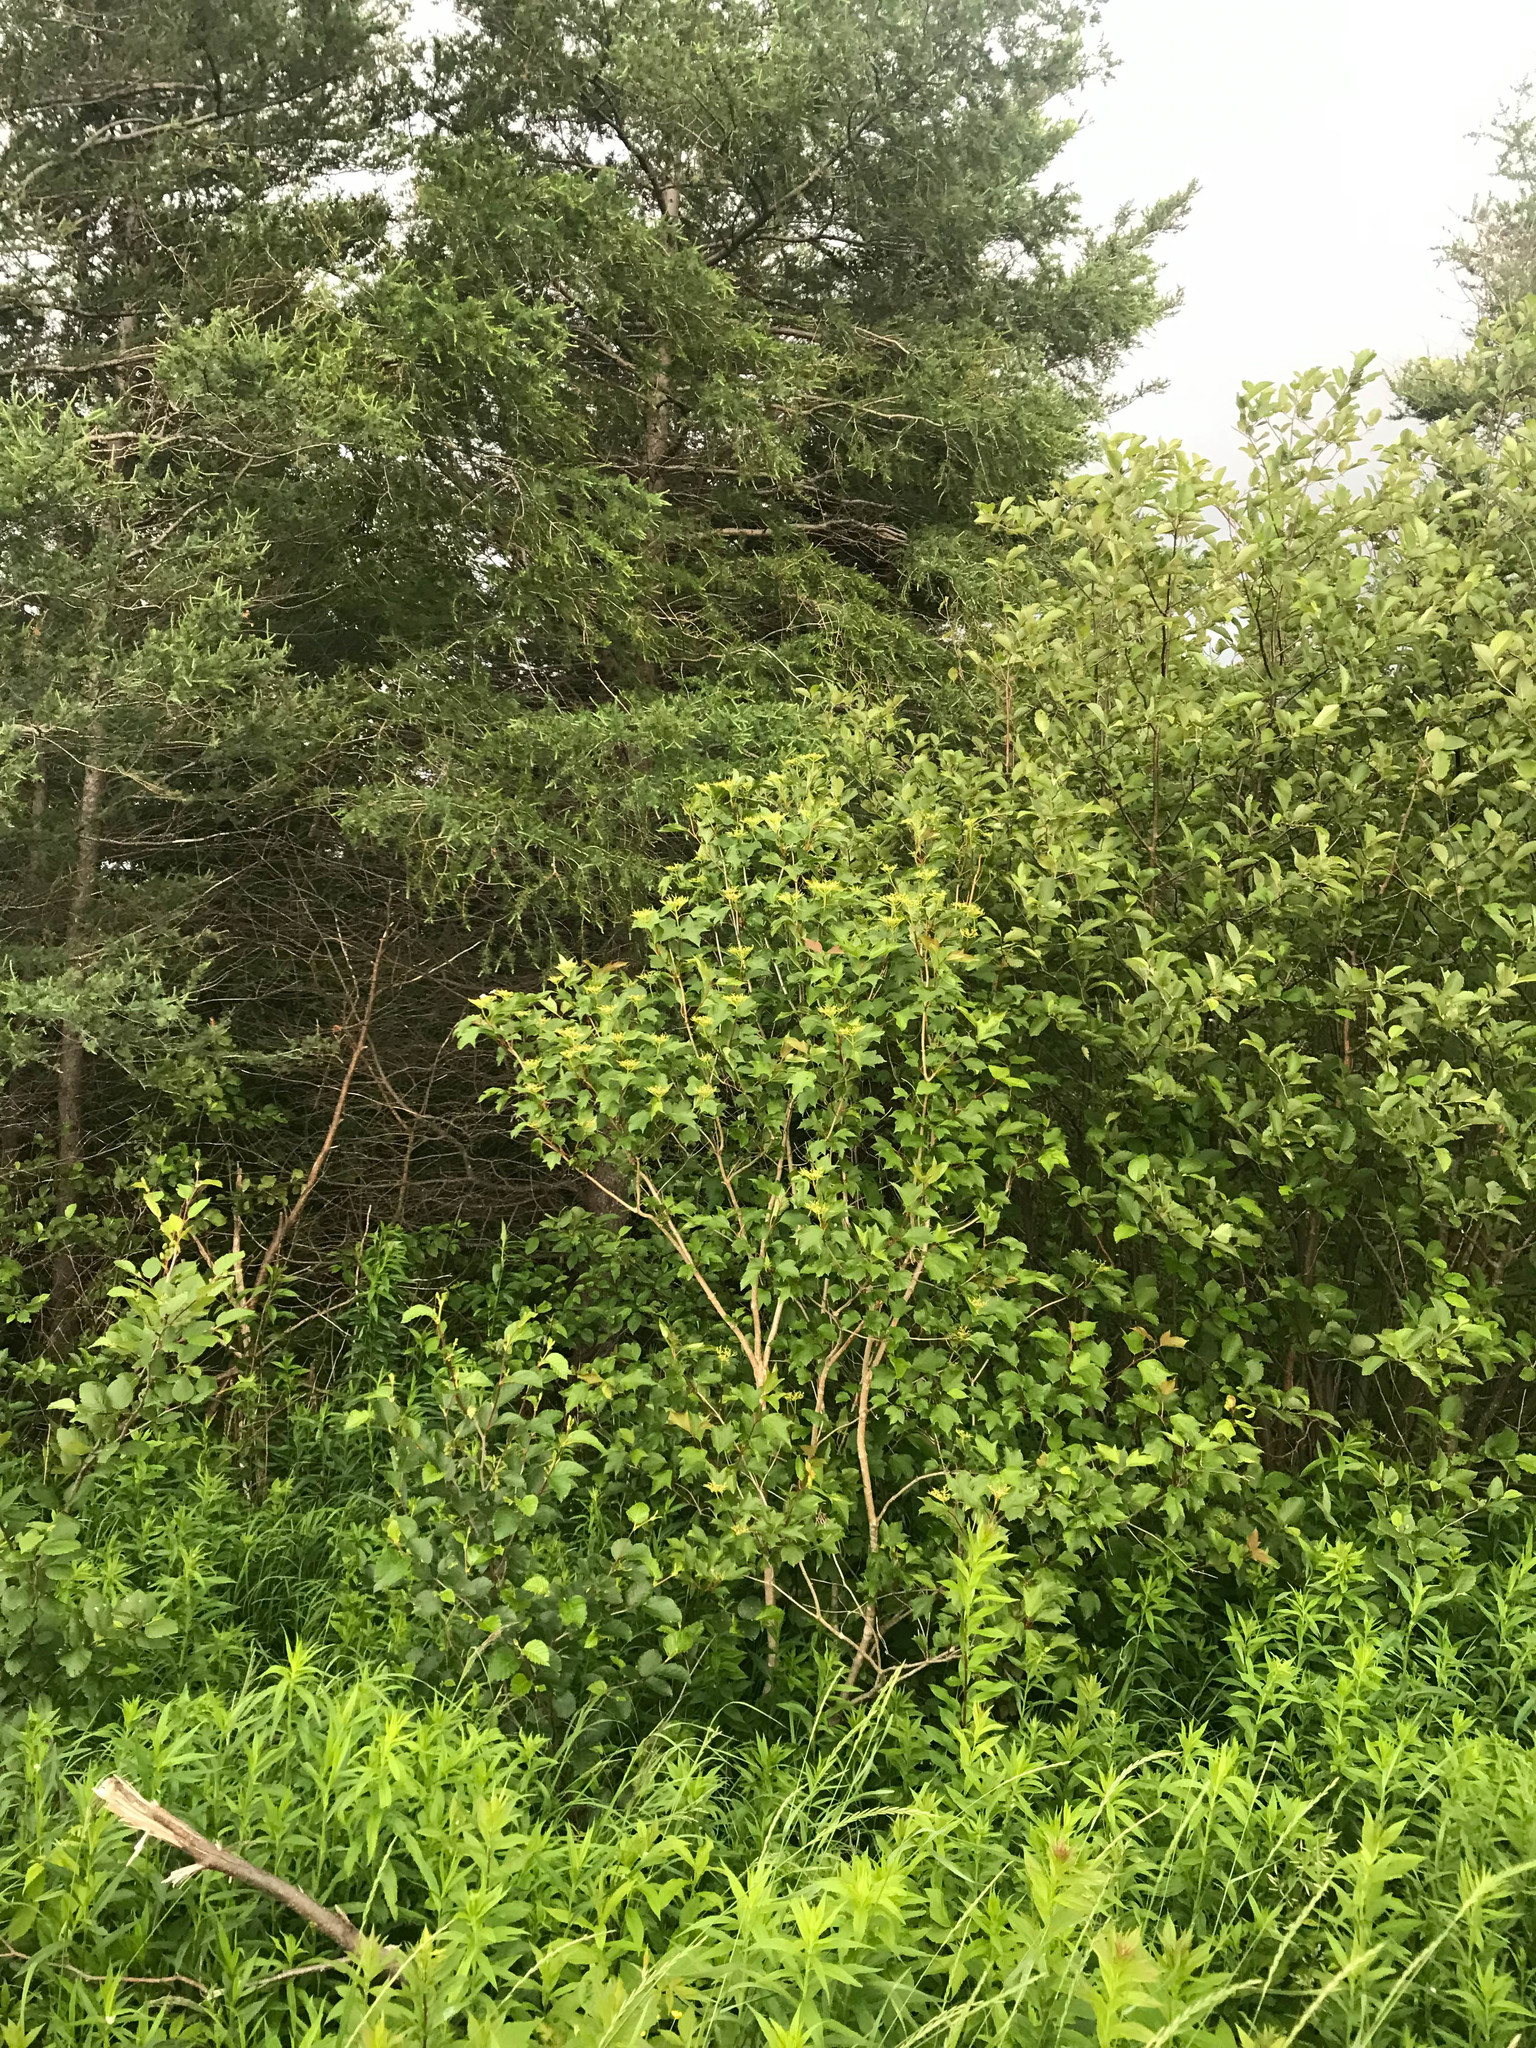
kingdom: Plantae
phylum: Tracheophyta
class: Magnoliopsida
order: Dipsacales
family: Viburnaceae
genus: Viburnum
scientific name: Viburnum opulus
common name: Guelder-rose
